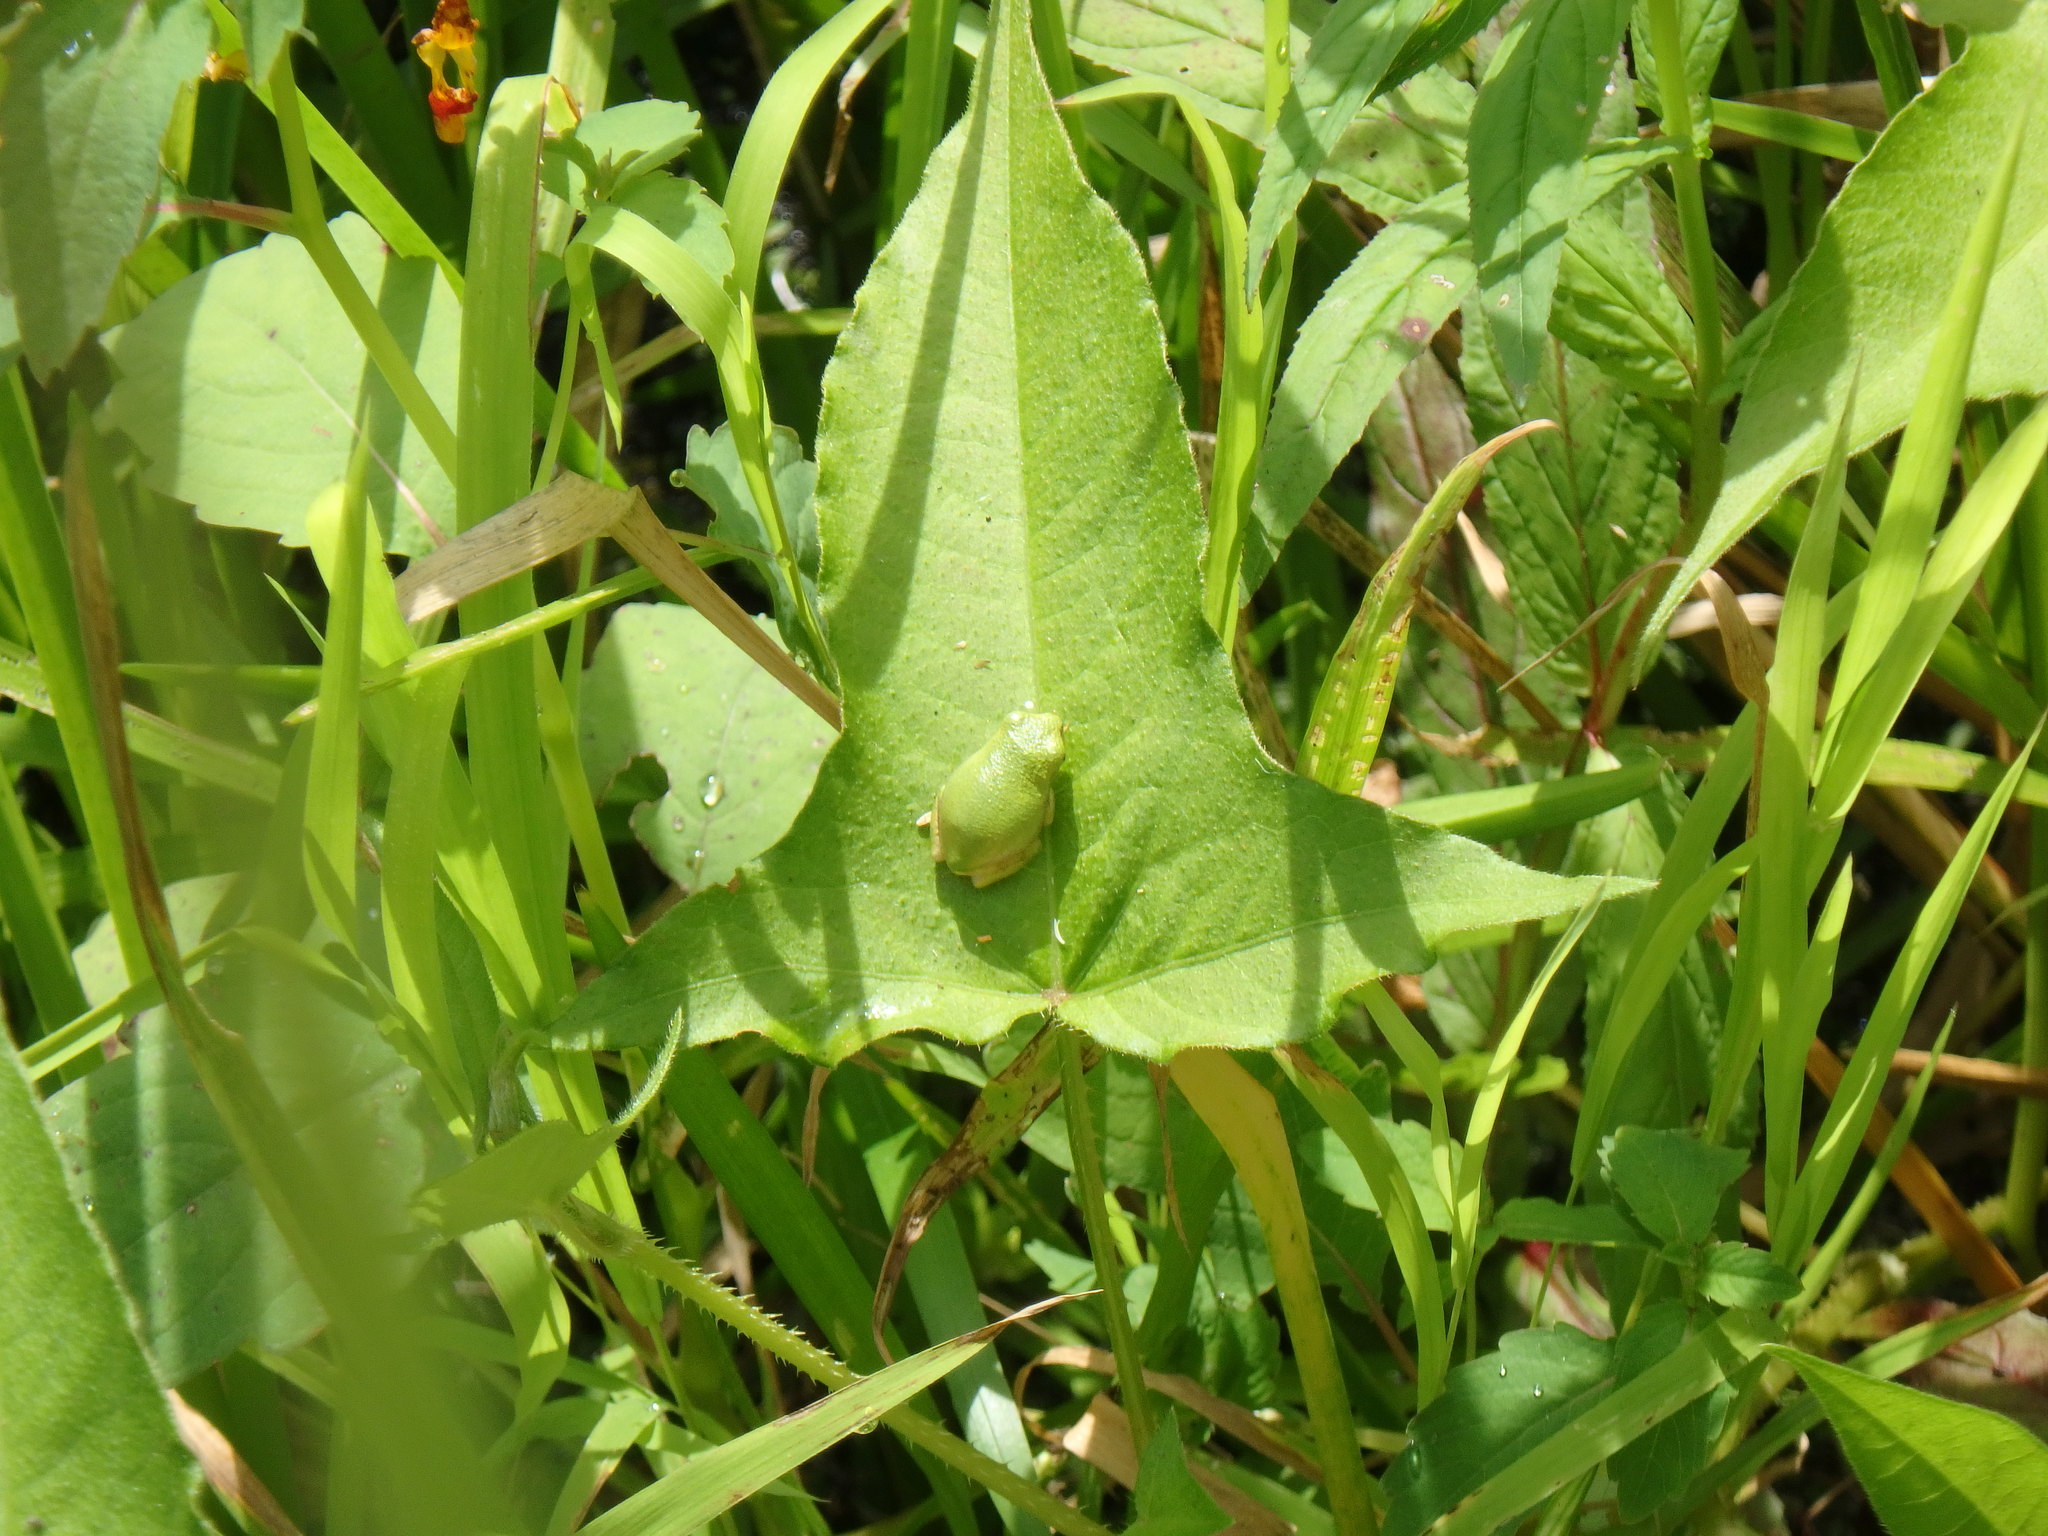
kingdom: Animalia
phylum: Chordata
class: Amphibia
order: Anura
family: Hylidae
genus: Dryophytes
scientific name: Dryophytes versicolor
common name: Gray treefrog
